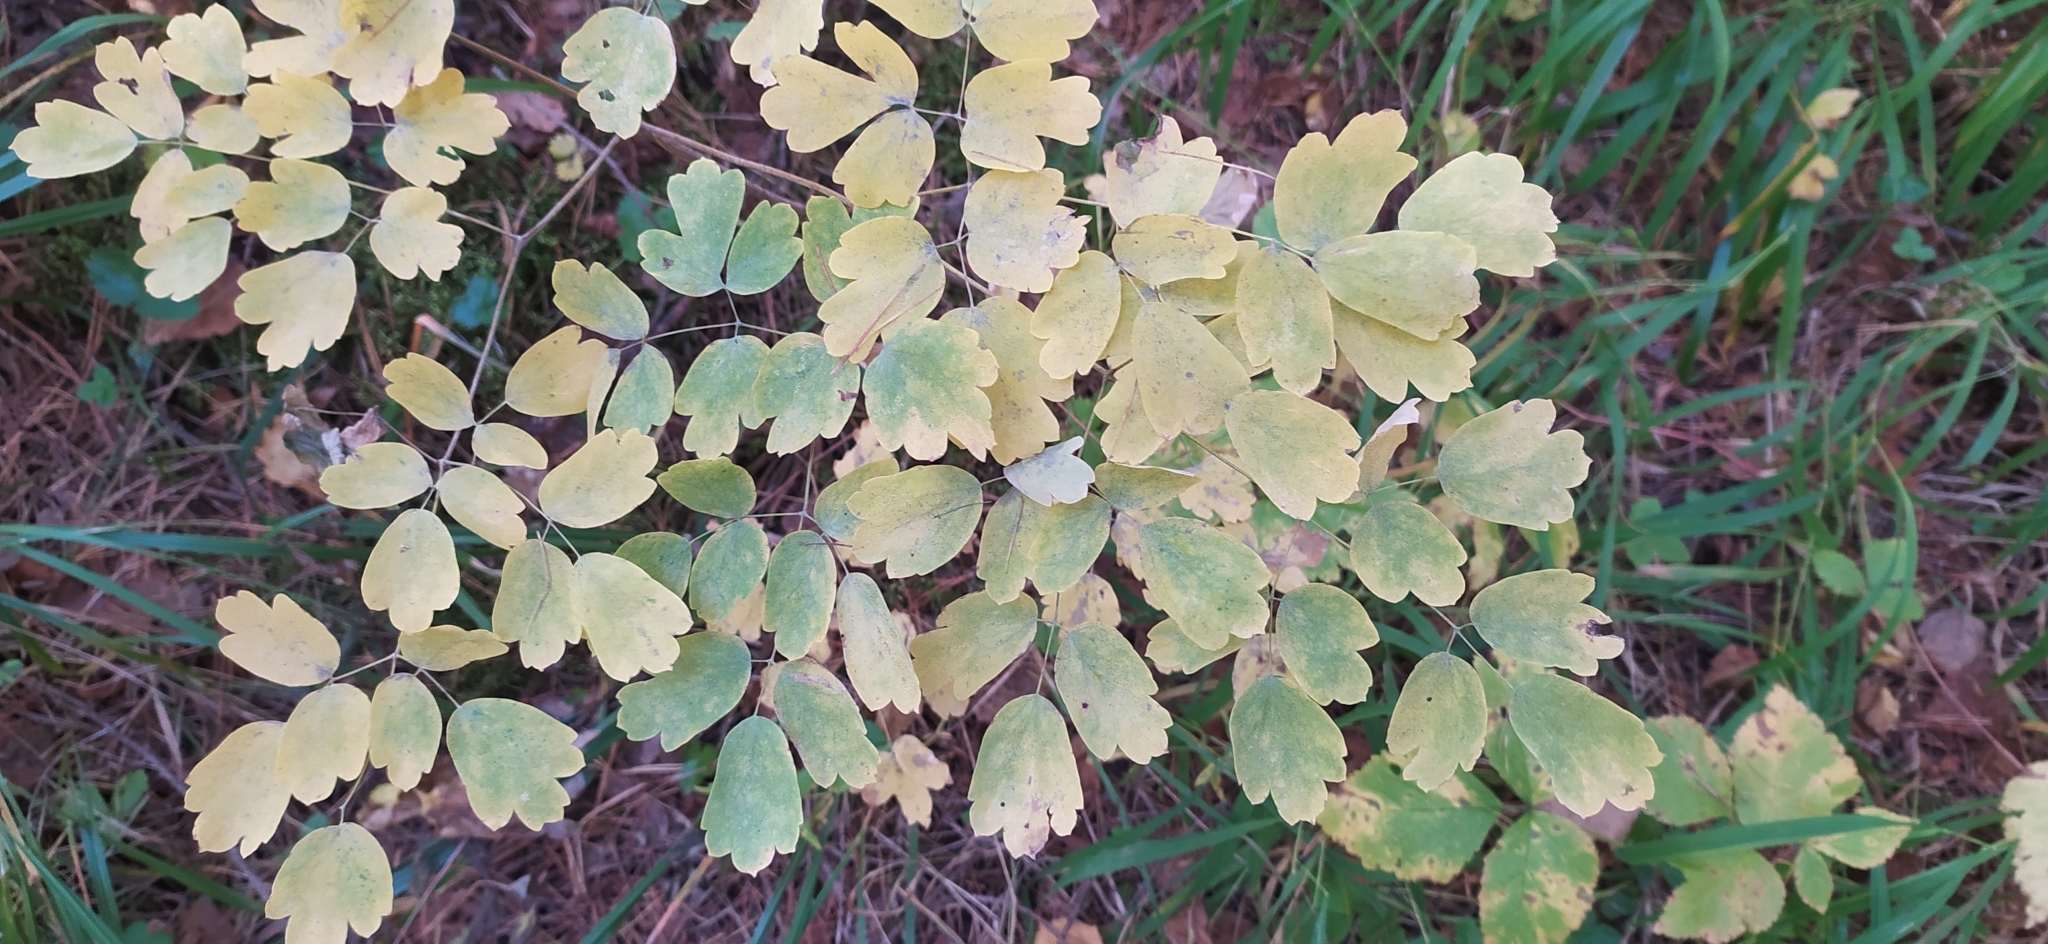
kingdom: Plantae
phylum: Tracheophyta
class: Magnoliopsida
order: Ranunculales
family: Ranunculaceae
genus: Thalictrum
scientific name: Thalictrum minus
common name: Lesser meadow-rue
